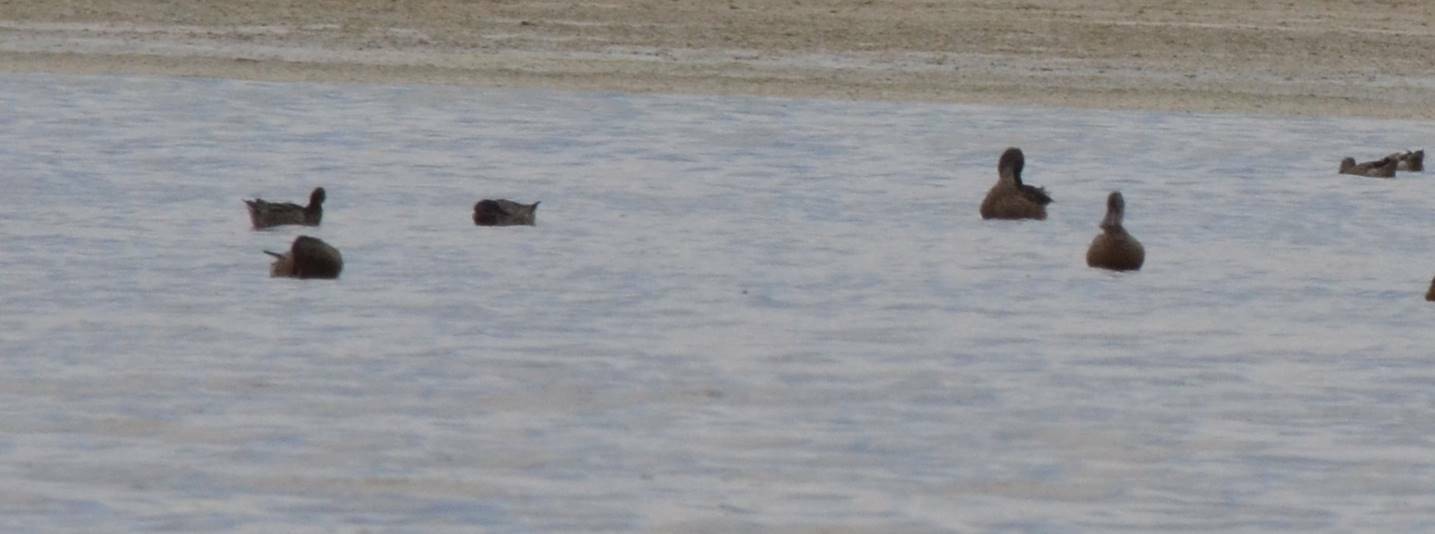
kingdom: Animalia
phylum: Chordata
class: Aves
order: Anseriformes
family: Anatidae
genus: Spatula
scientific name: Spatula clypeata
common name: Northern shoveler
